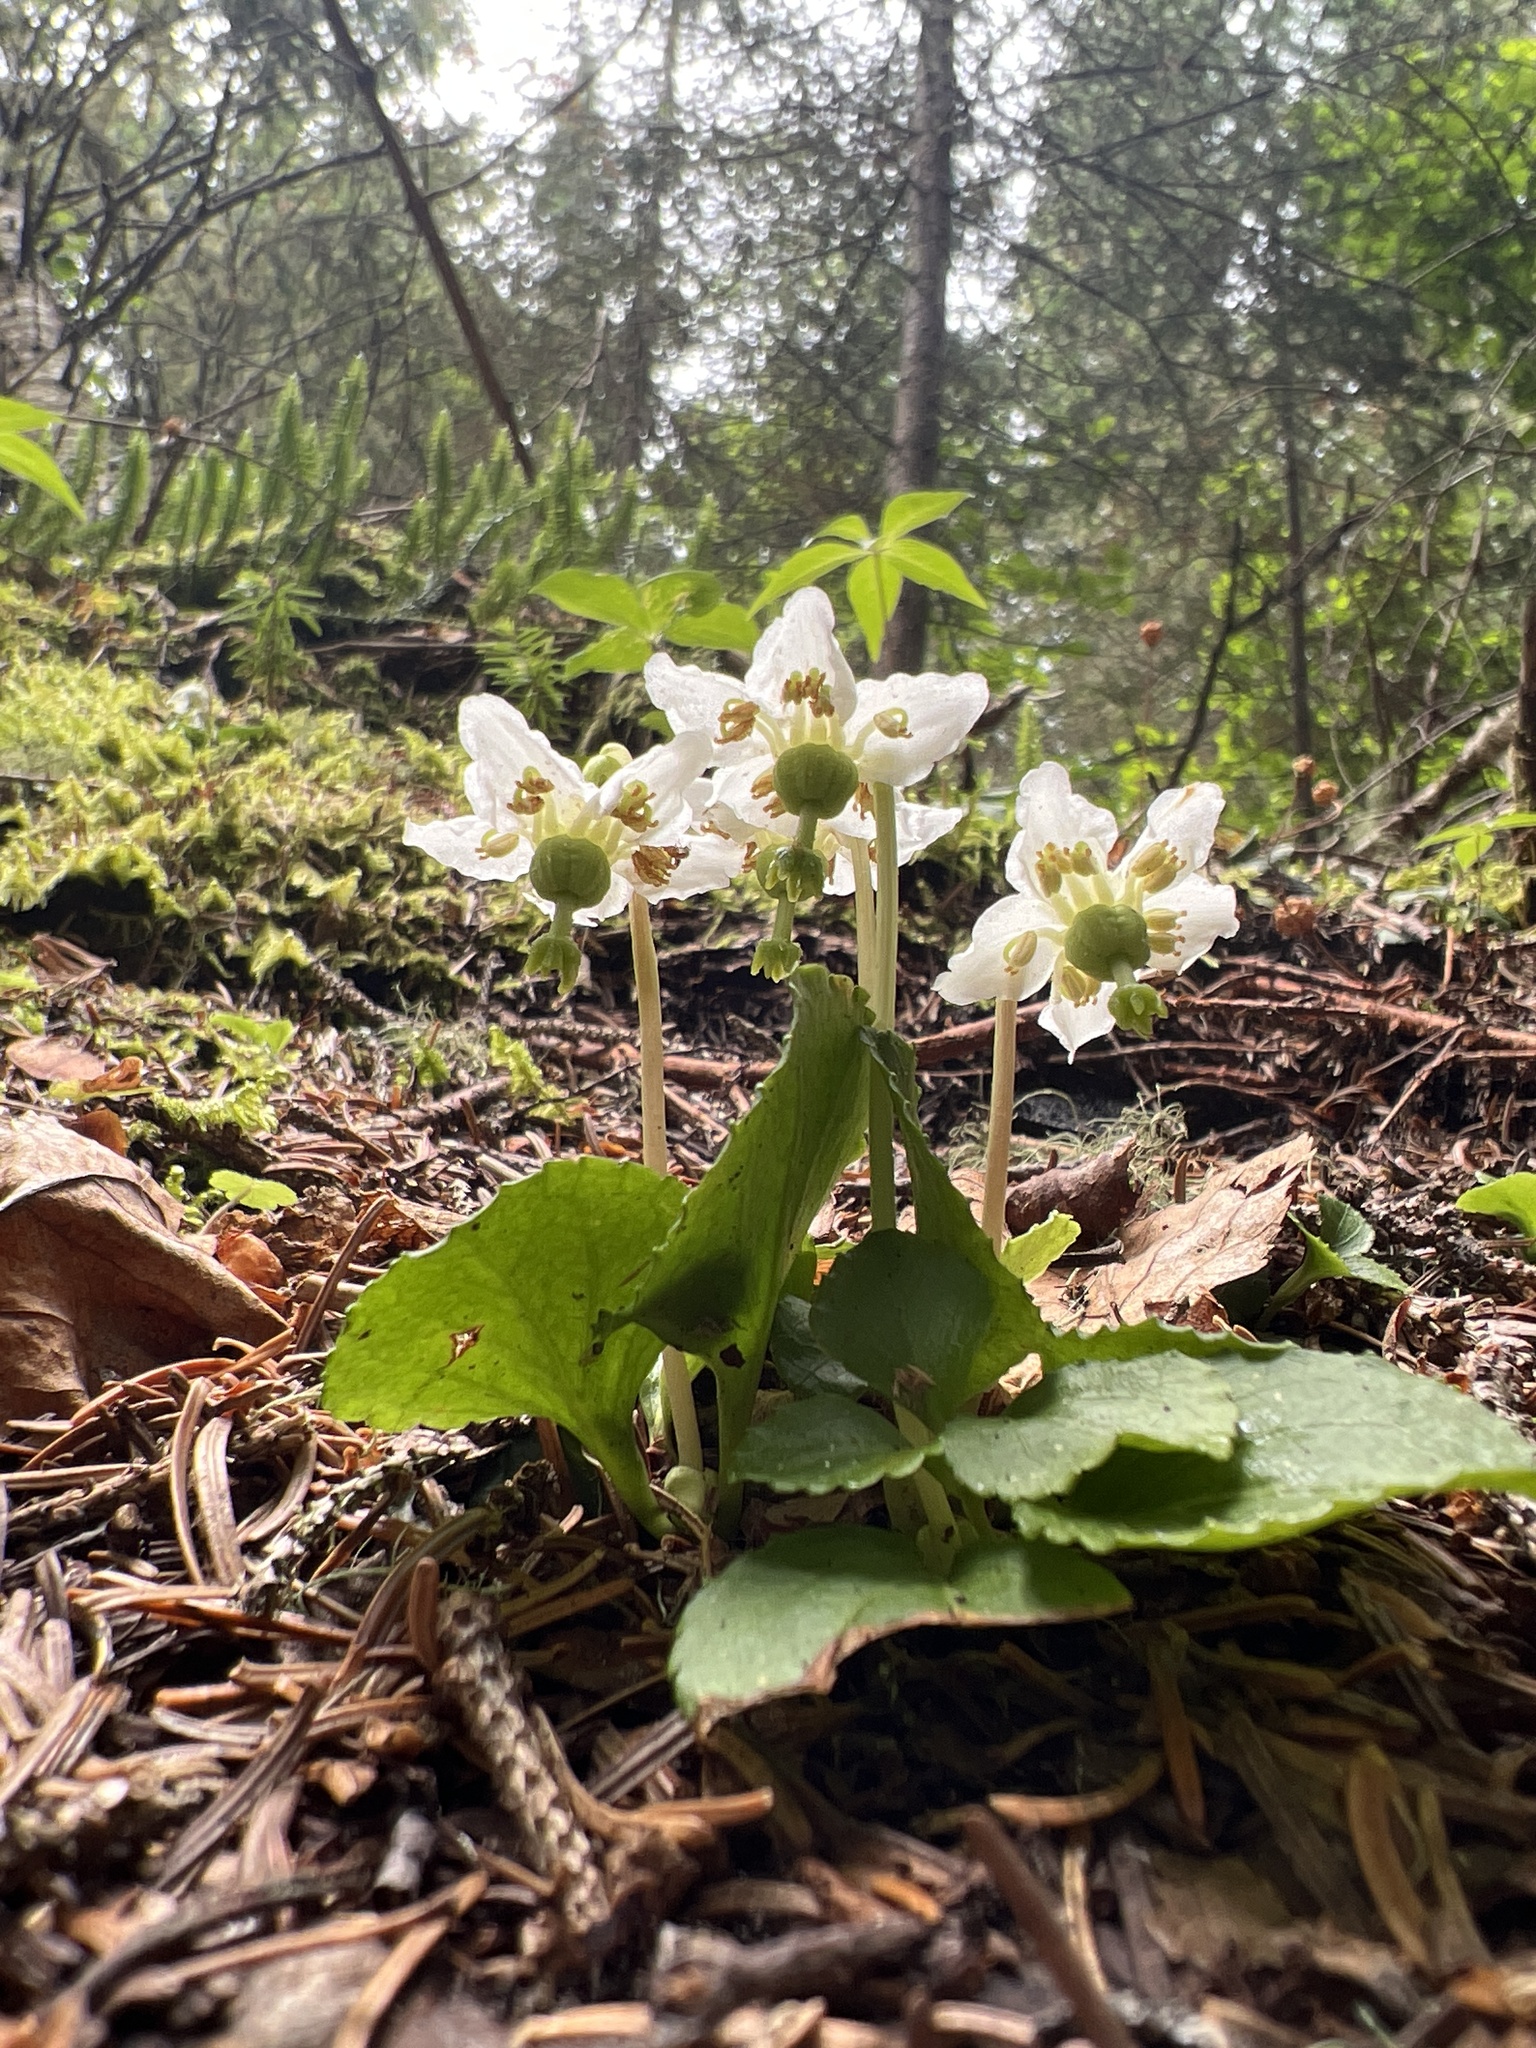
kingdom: Plantae
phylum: Tracheophyta
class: Magnoliopsida
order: Ericales
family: Ericaceae
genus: Moneses
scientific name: Moneses uniflora
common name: One-flowered wintergreen
